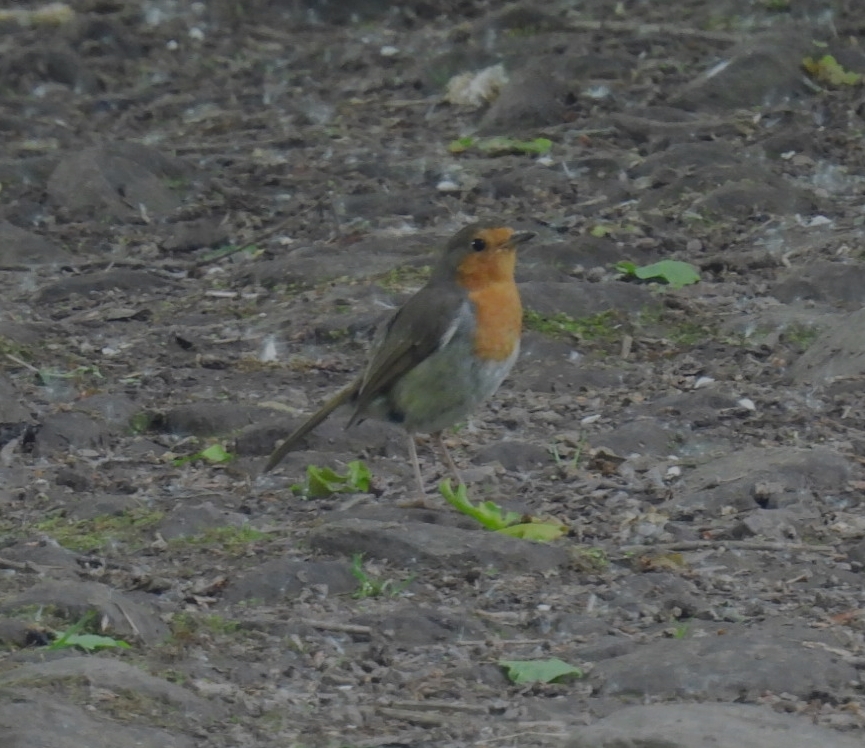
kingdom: Animalia
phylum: Chordata
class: Aves
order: Passeriformes
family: Muscicapidae
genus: Erithacus
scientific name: Erithacus rubecula
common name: European robin
